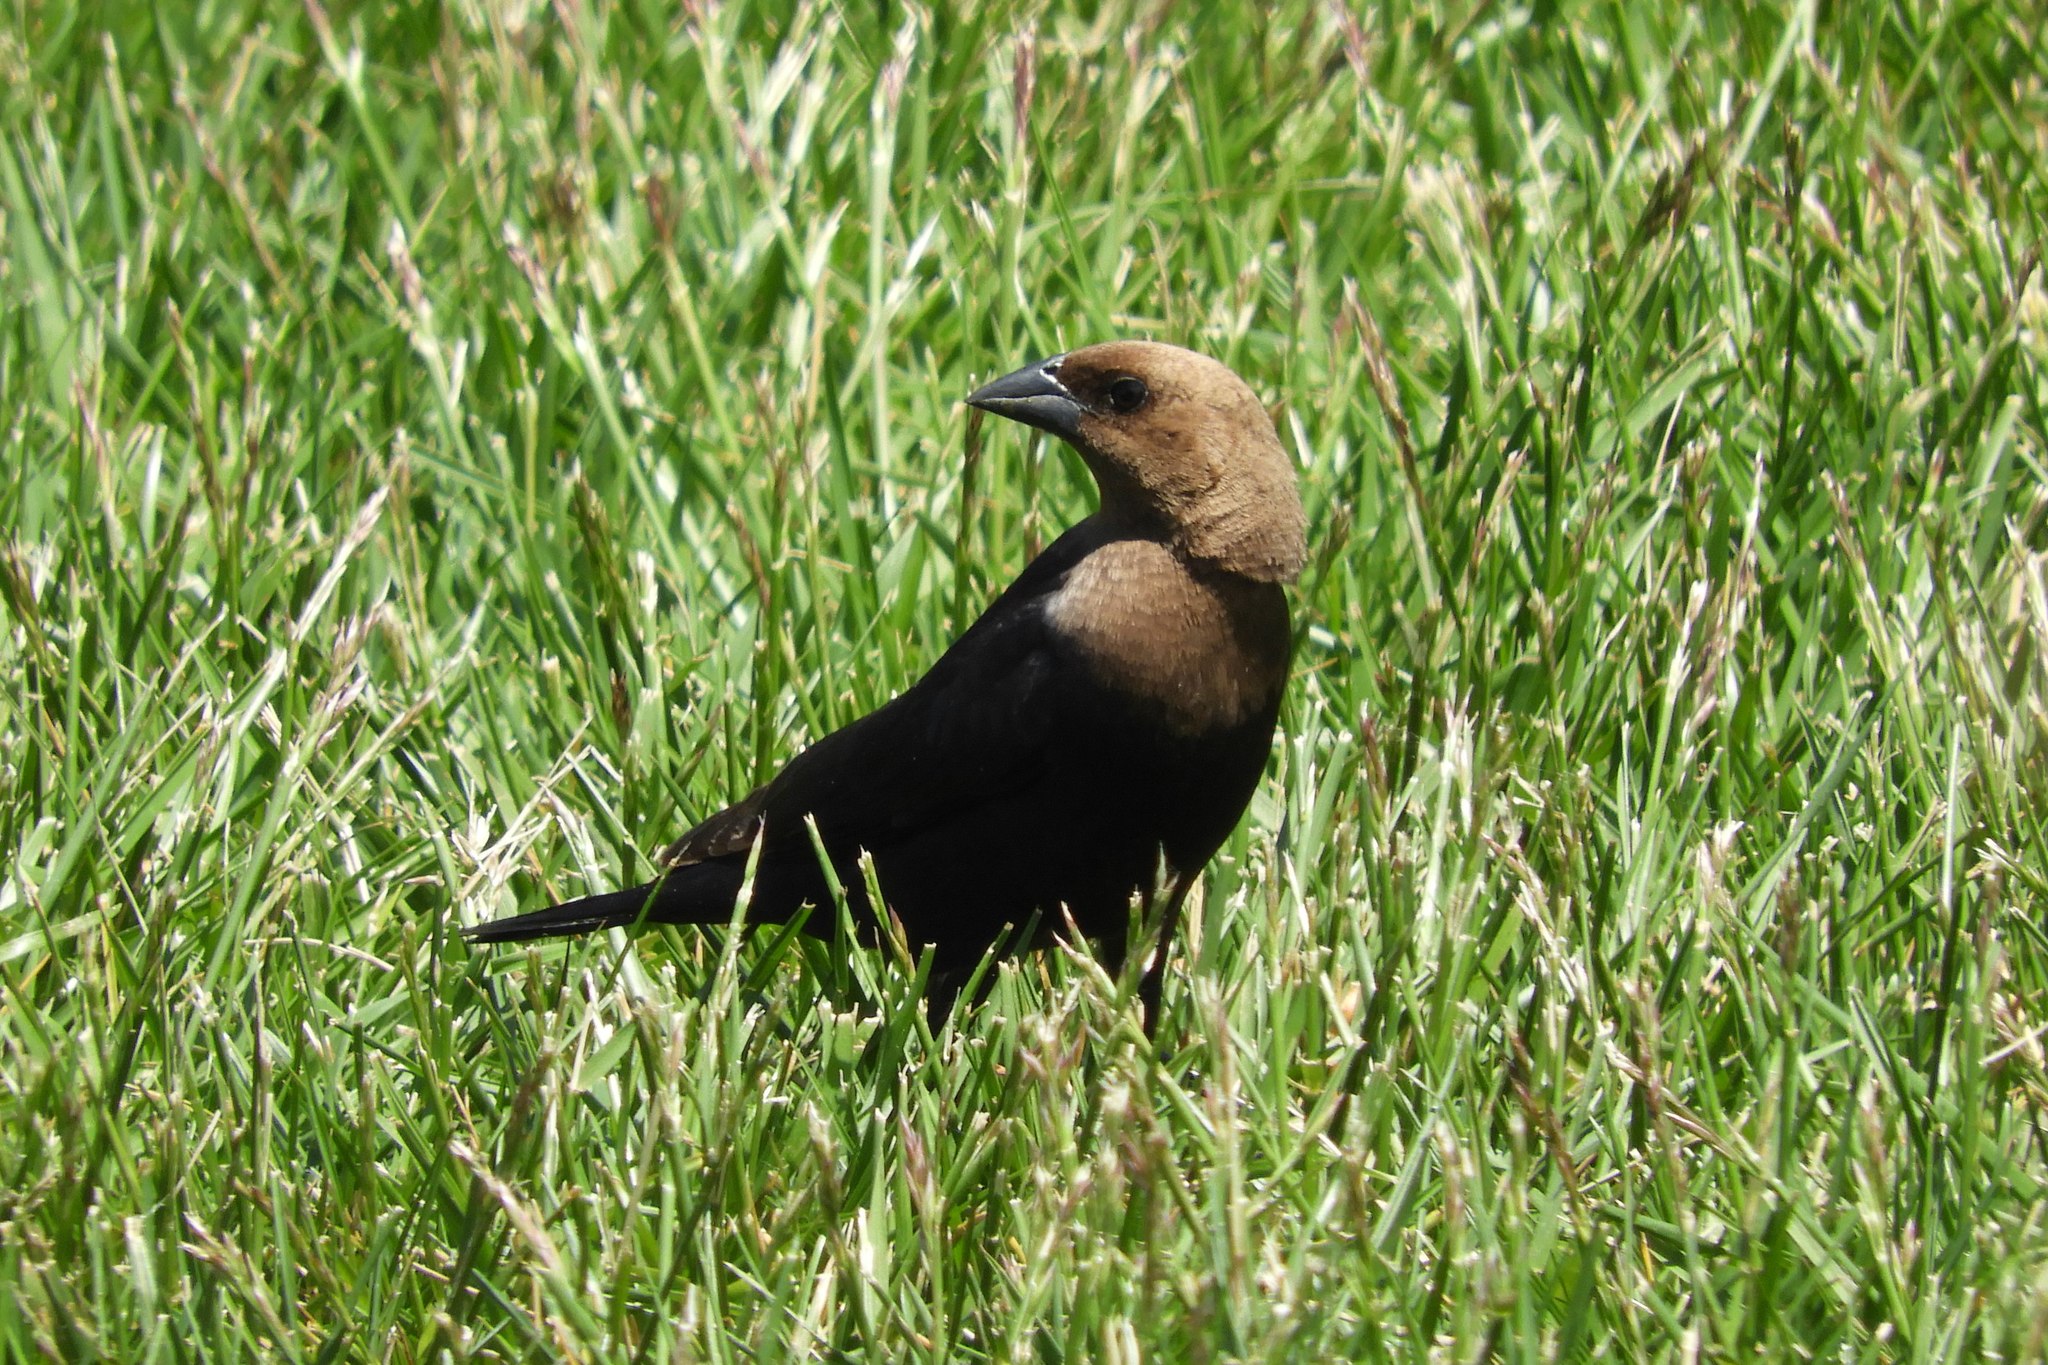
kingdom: Animalia
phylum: Chordata
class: Aves
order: Passeriformes
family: Icteridae
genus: Molothrus
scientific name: Molothrus ater
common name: Brown-headed cowbird
